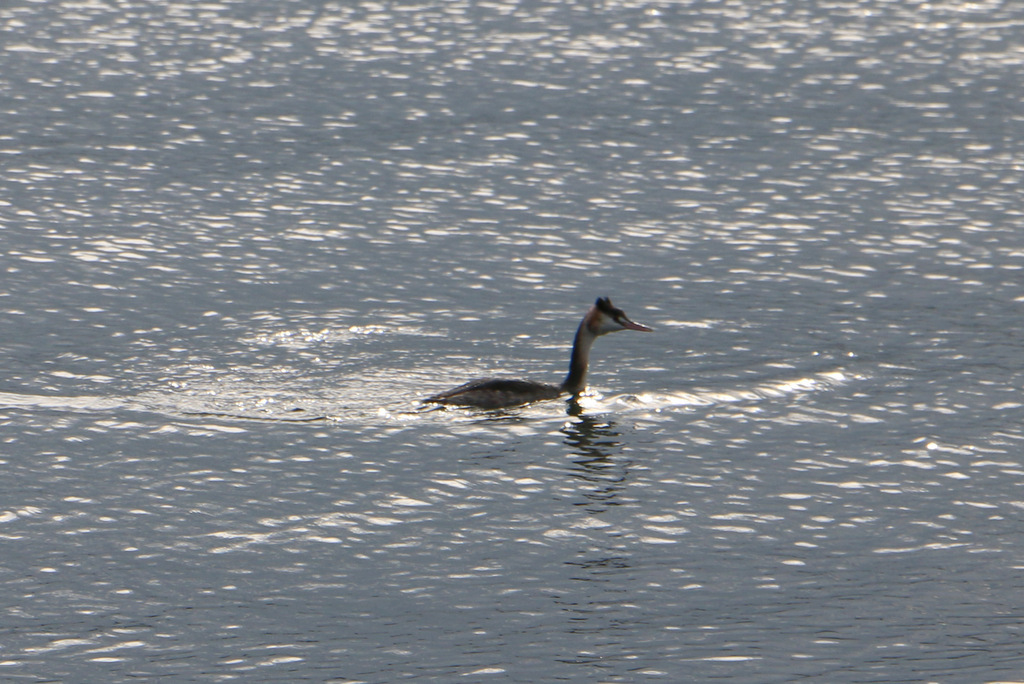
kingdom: Animalia
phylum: Chordata
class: Aves
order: Podicipediformes
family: Podicipedidae
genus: Podiceps
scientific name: Podiceps cristatus
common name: Great crested grebe
